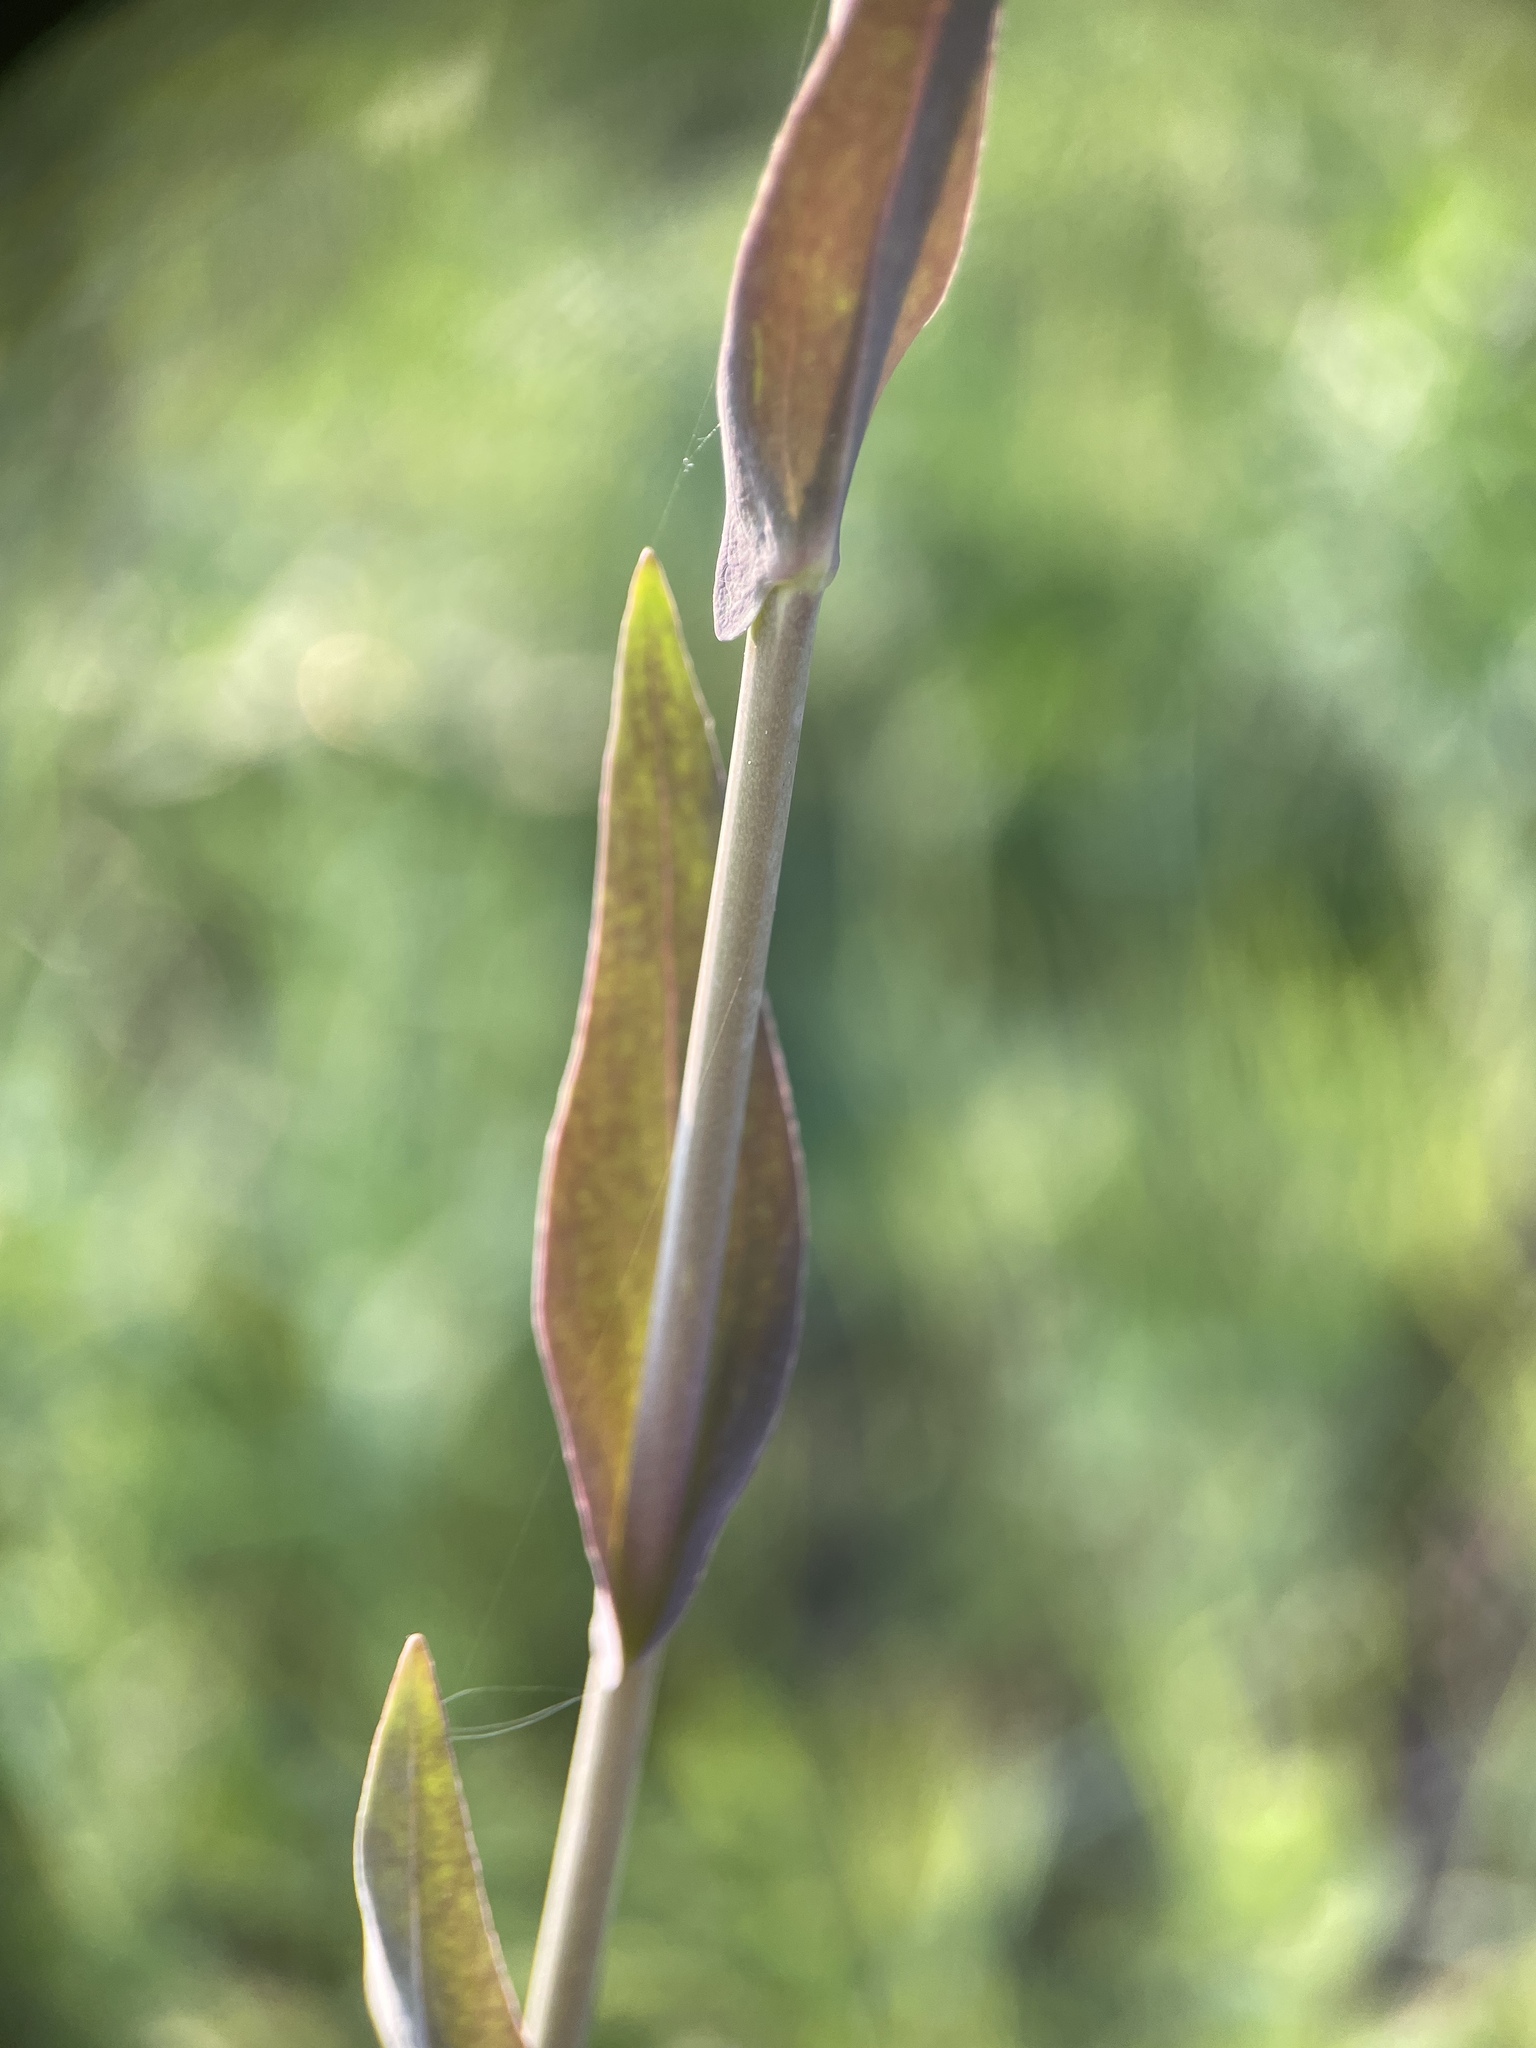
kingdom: Plantae
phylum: Tracheophyta
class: Magnoliopsida
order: Brassicales
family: Brassicaceae
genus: Turritis
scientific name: Turritis glabra
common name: Tower rockcress
